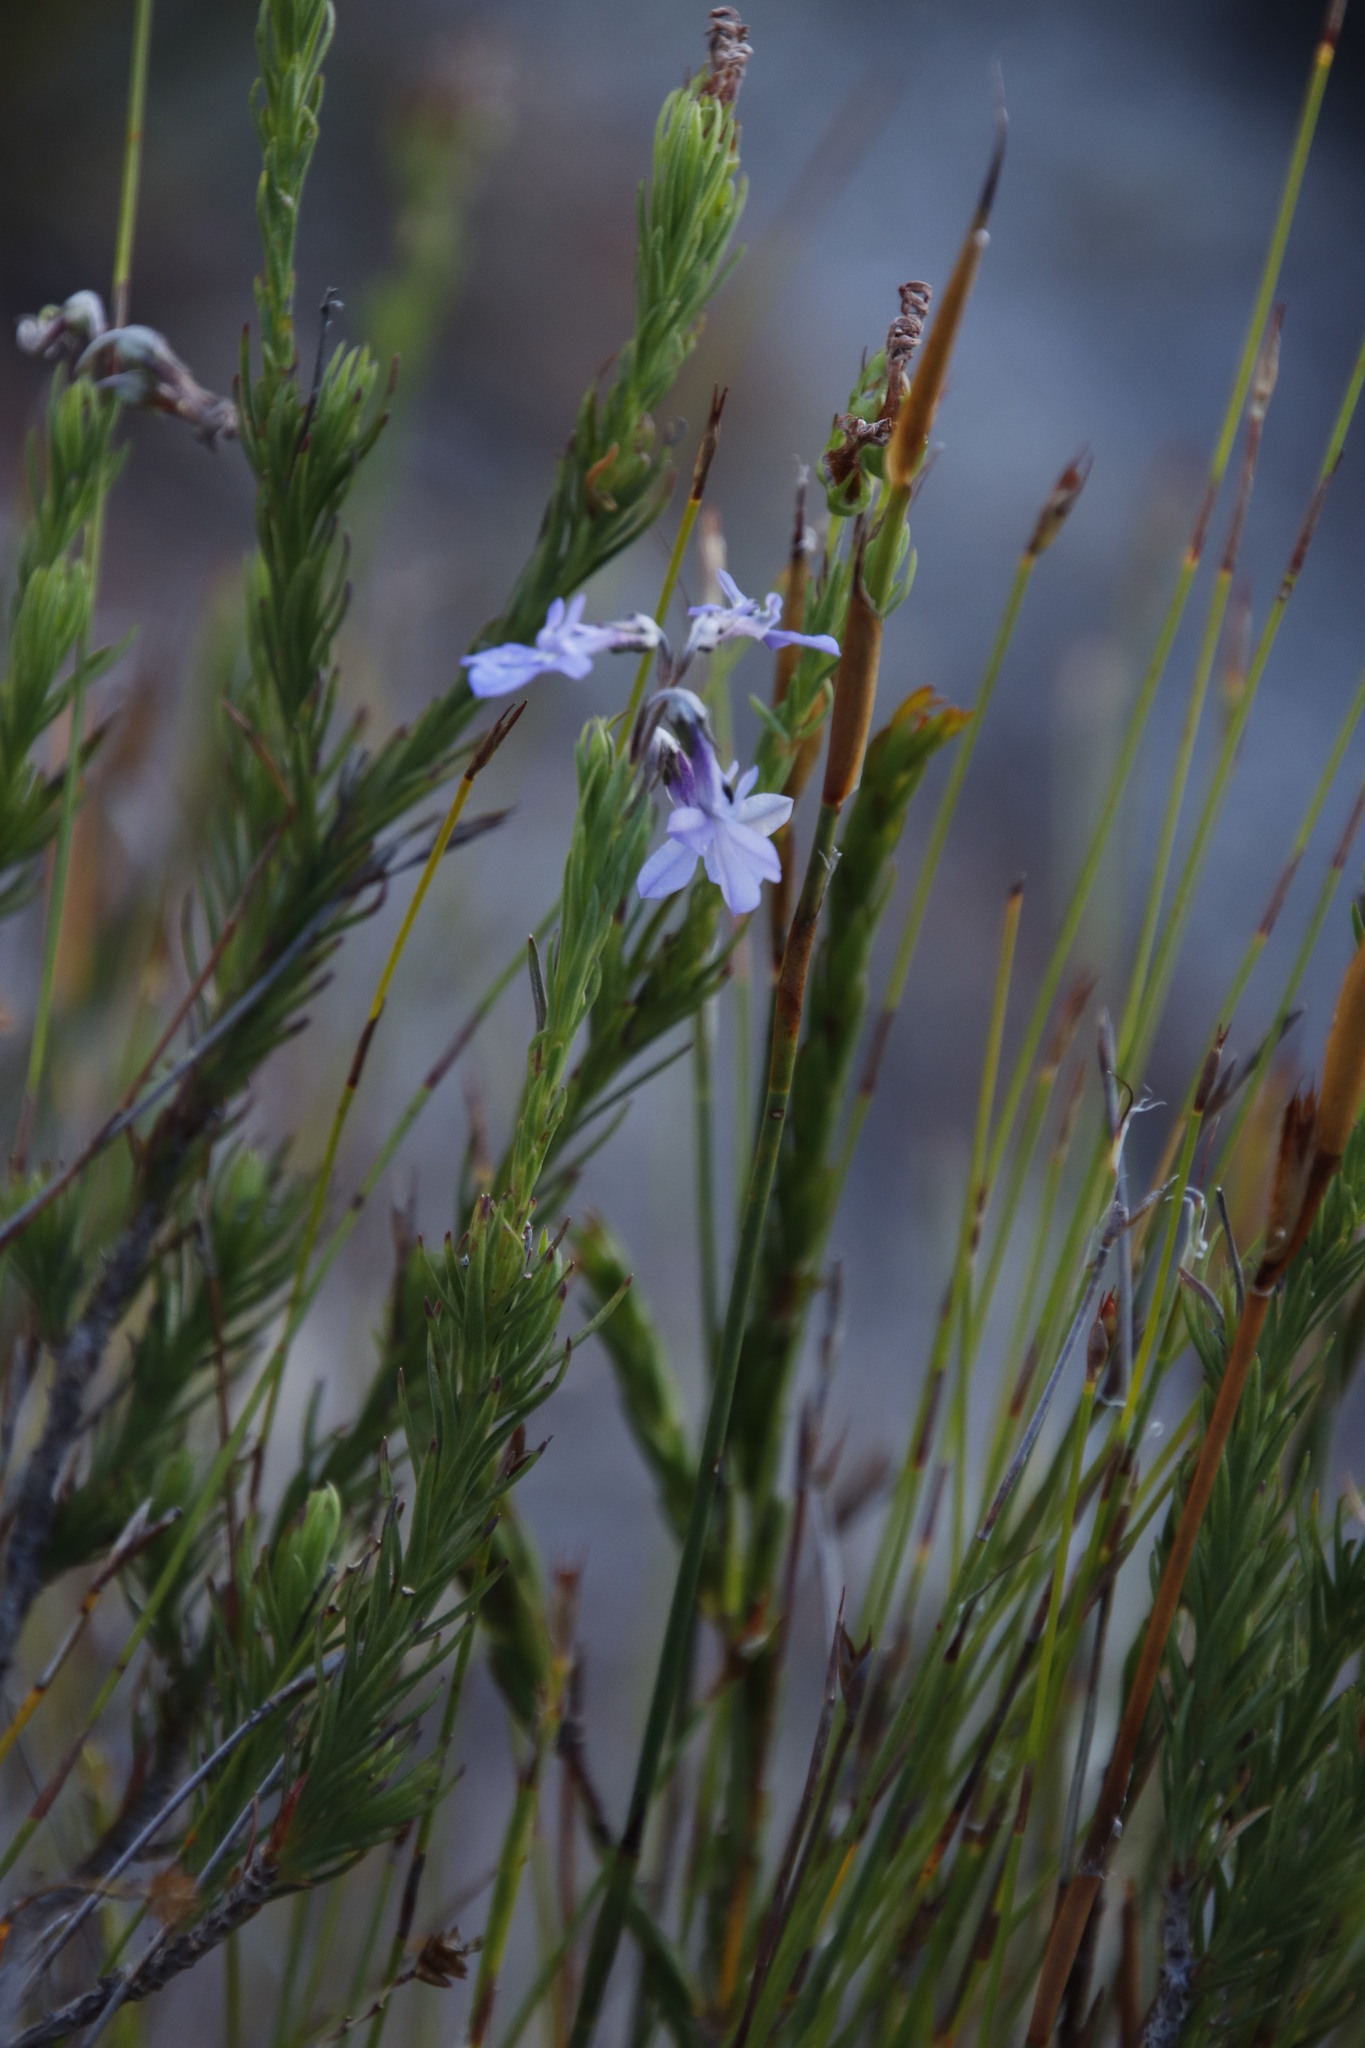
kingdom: Plantae
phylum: Tracheophyta
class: Magnoliopsida
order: Asterales
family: Campanulaceae
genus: Lobelia
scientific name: Lobelia pinifolia
